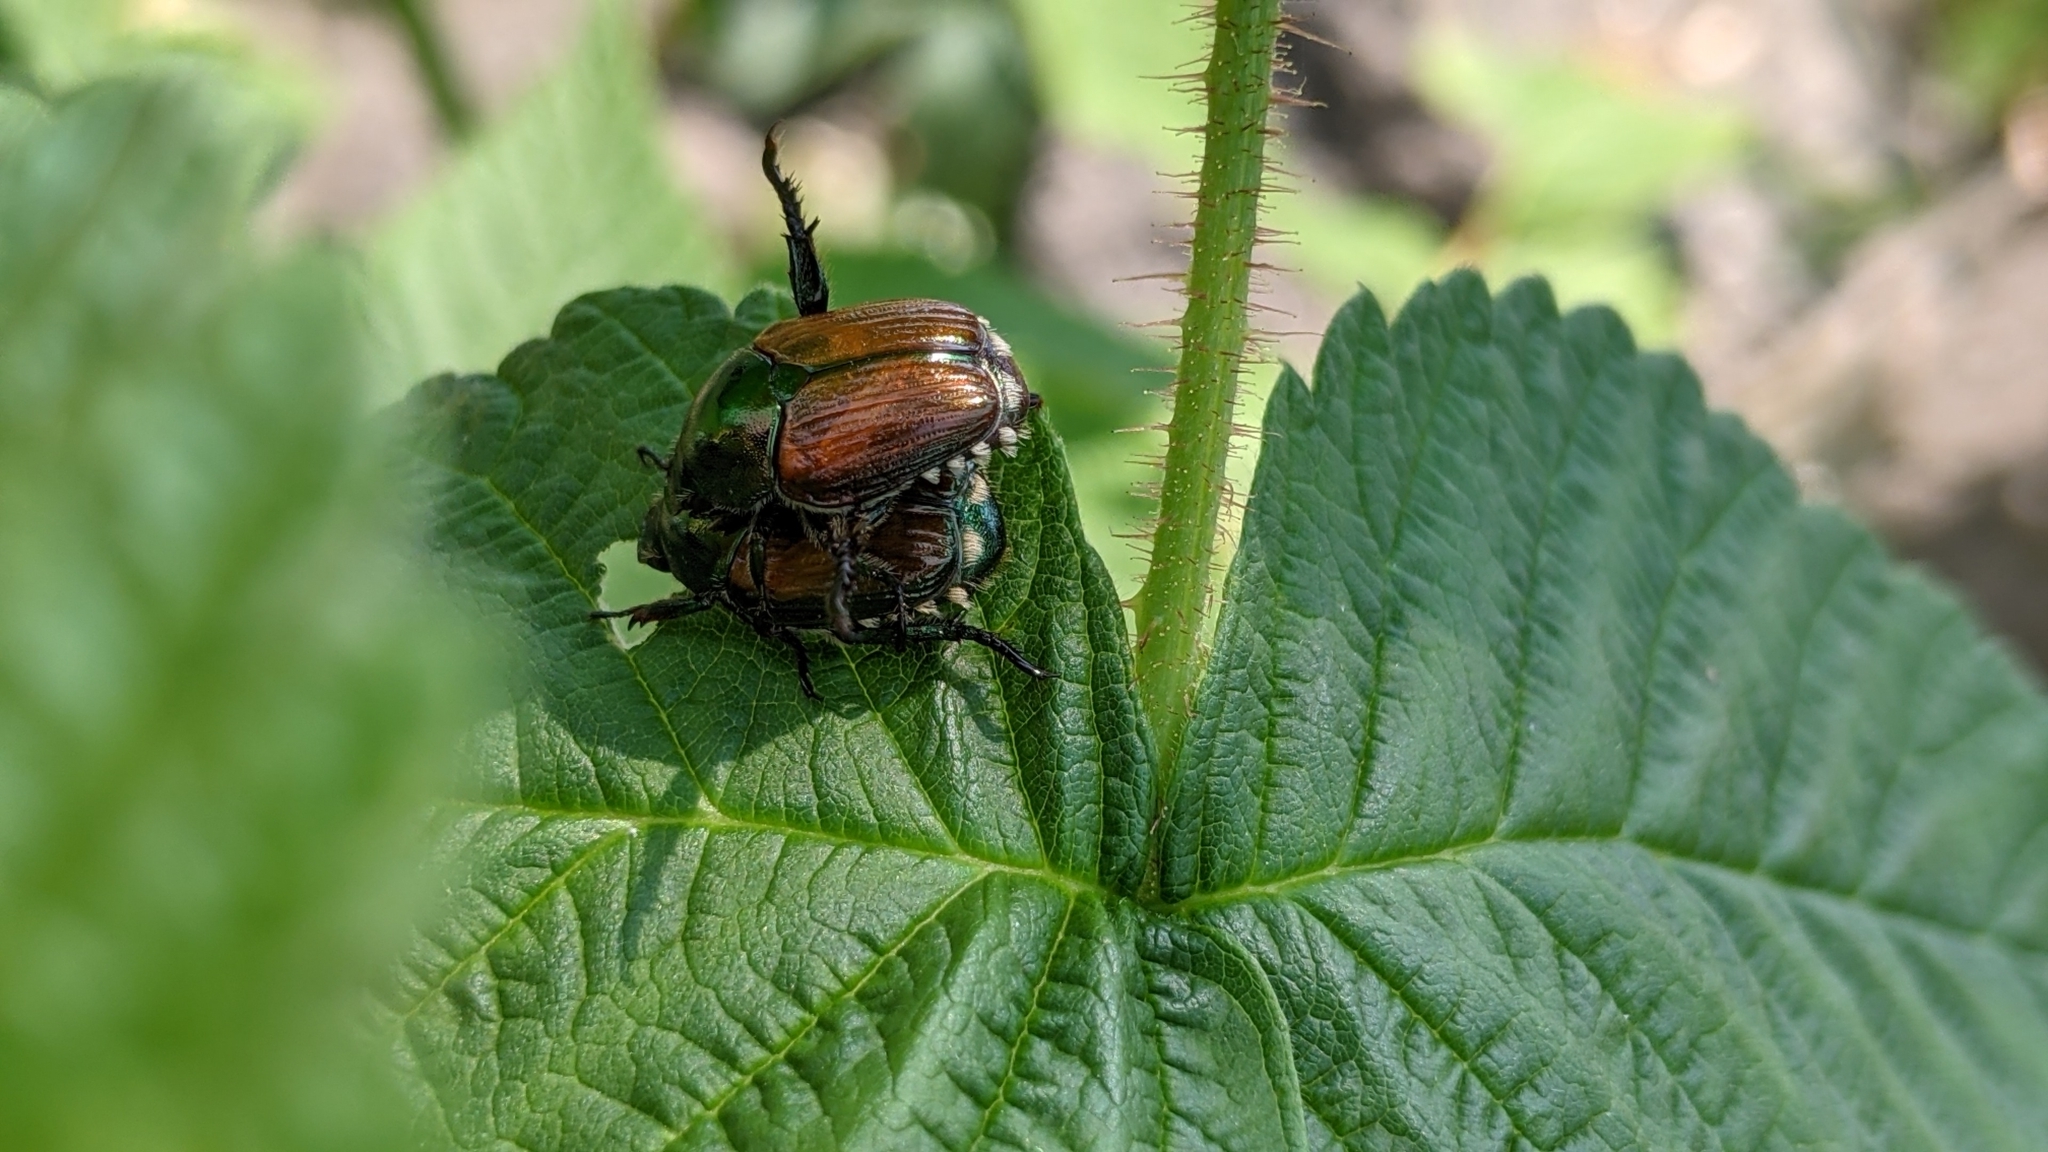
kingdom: Animalia
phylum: Arthropoda
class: Insecta
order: Coleoptera
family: Scarabaeidae
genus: Popillia
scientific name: Popillia japonica
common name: Japanese beetle
